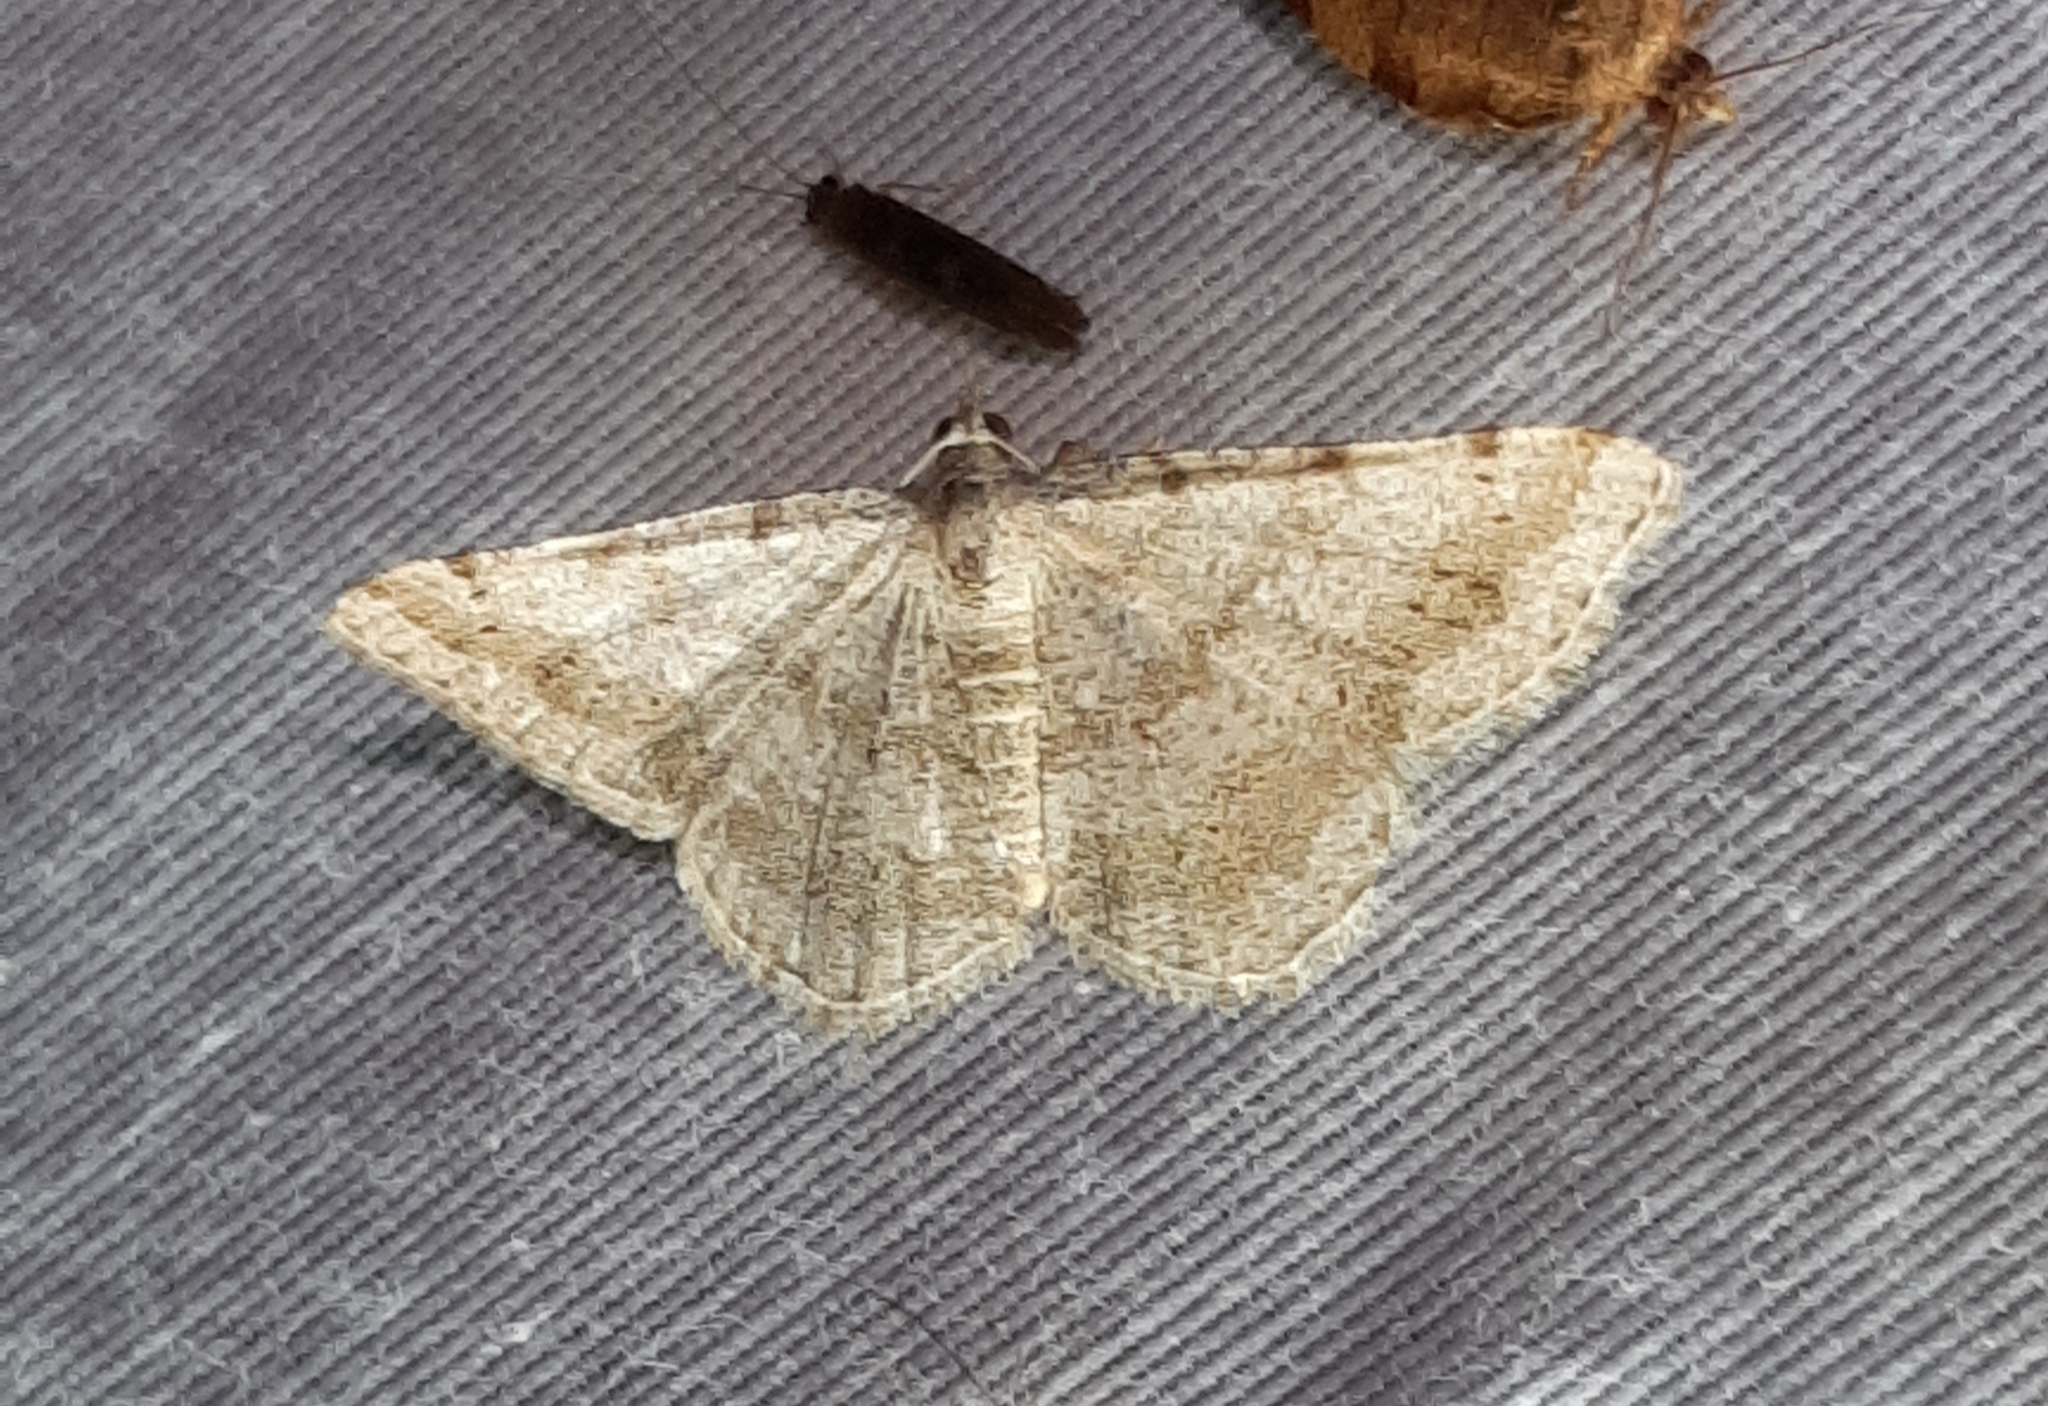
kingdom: Animalia
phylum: Arthropoda
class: Insecta
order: Lepidoptera
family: Geometridae
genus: Digrammia
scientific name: Digrammia ocellinata
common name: Faint-spotted angle
